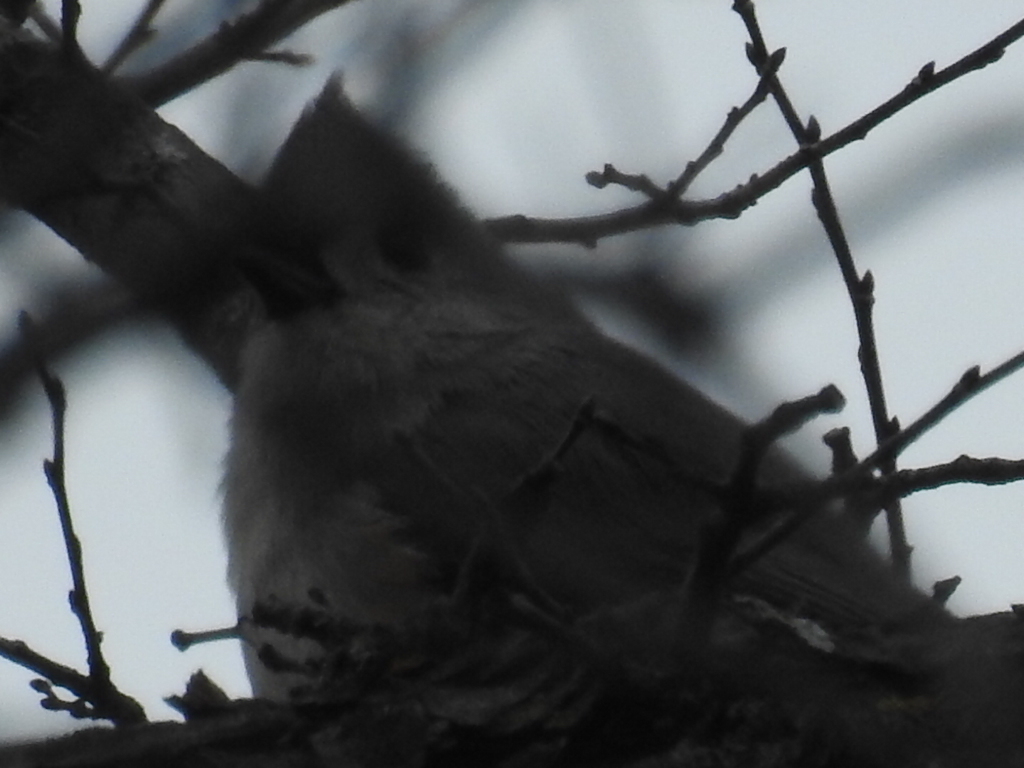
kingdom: Animalia
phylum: Chordata
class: Aves
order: Passeriformes
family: Paridae
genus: Baeolophus
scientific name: Baeolophus bicolor
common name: Tufted titmouse
